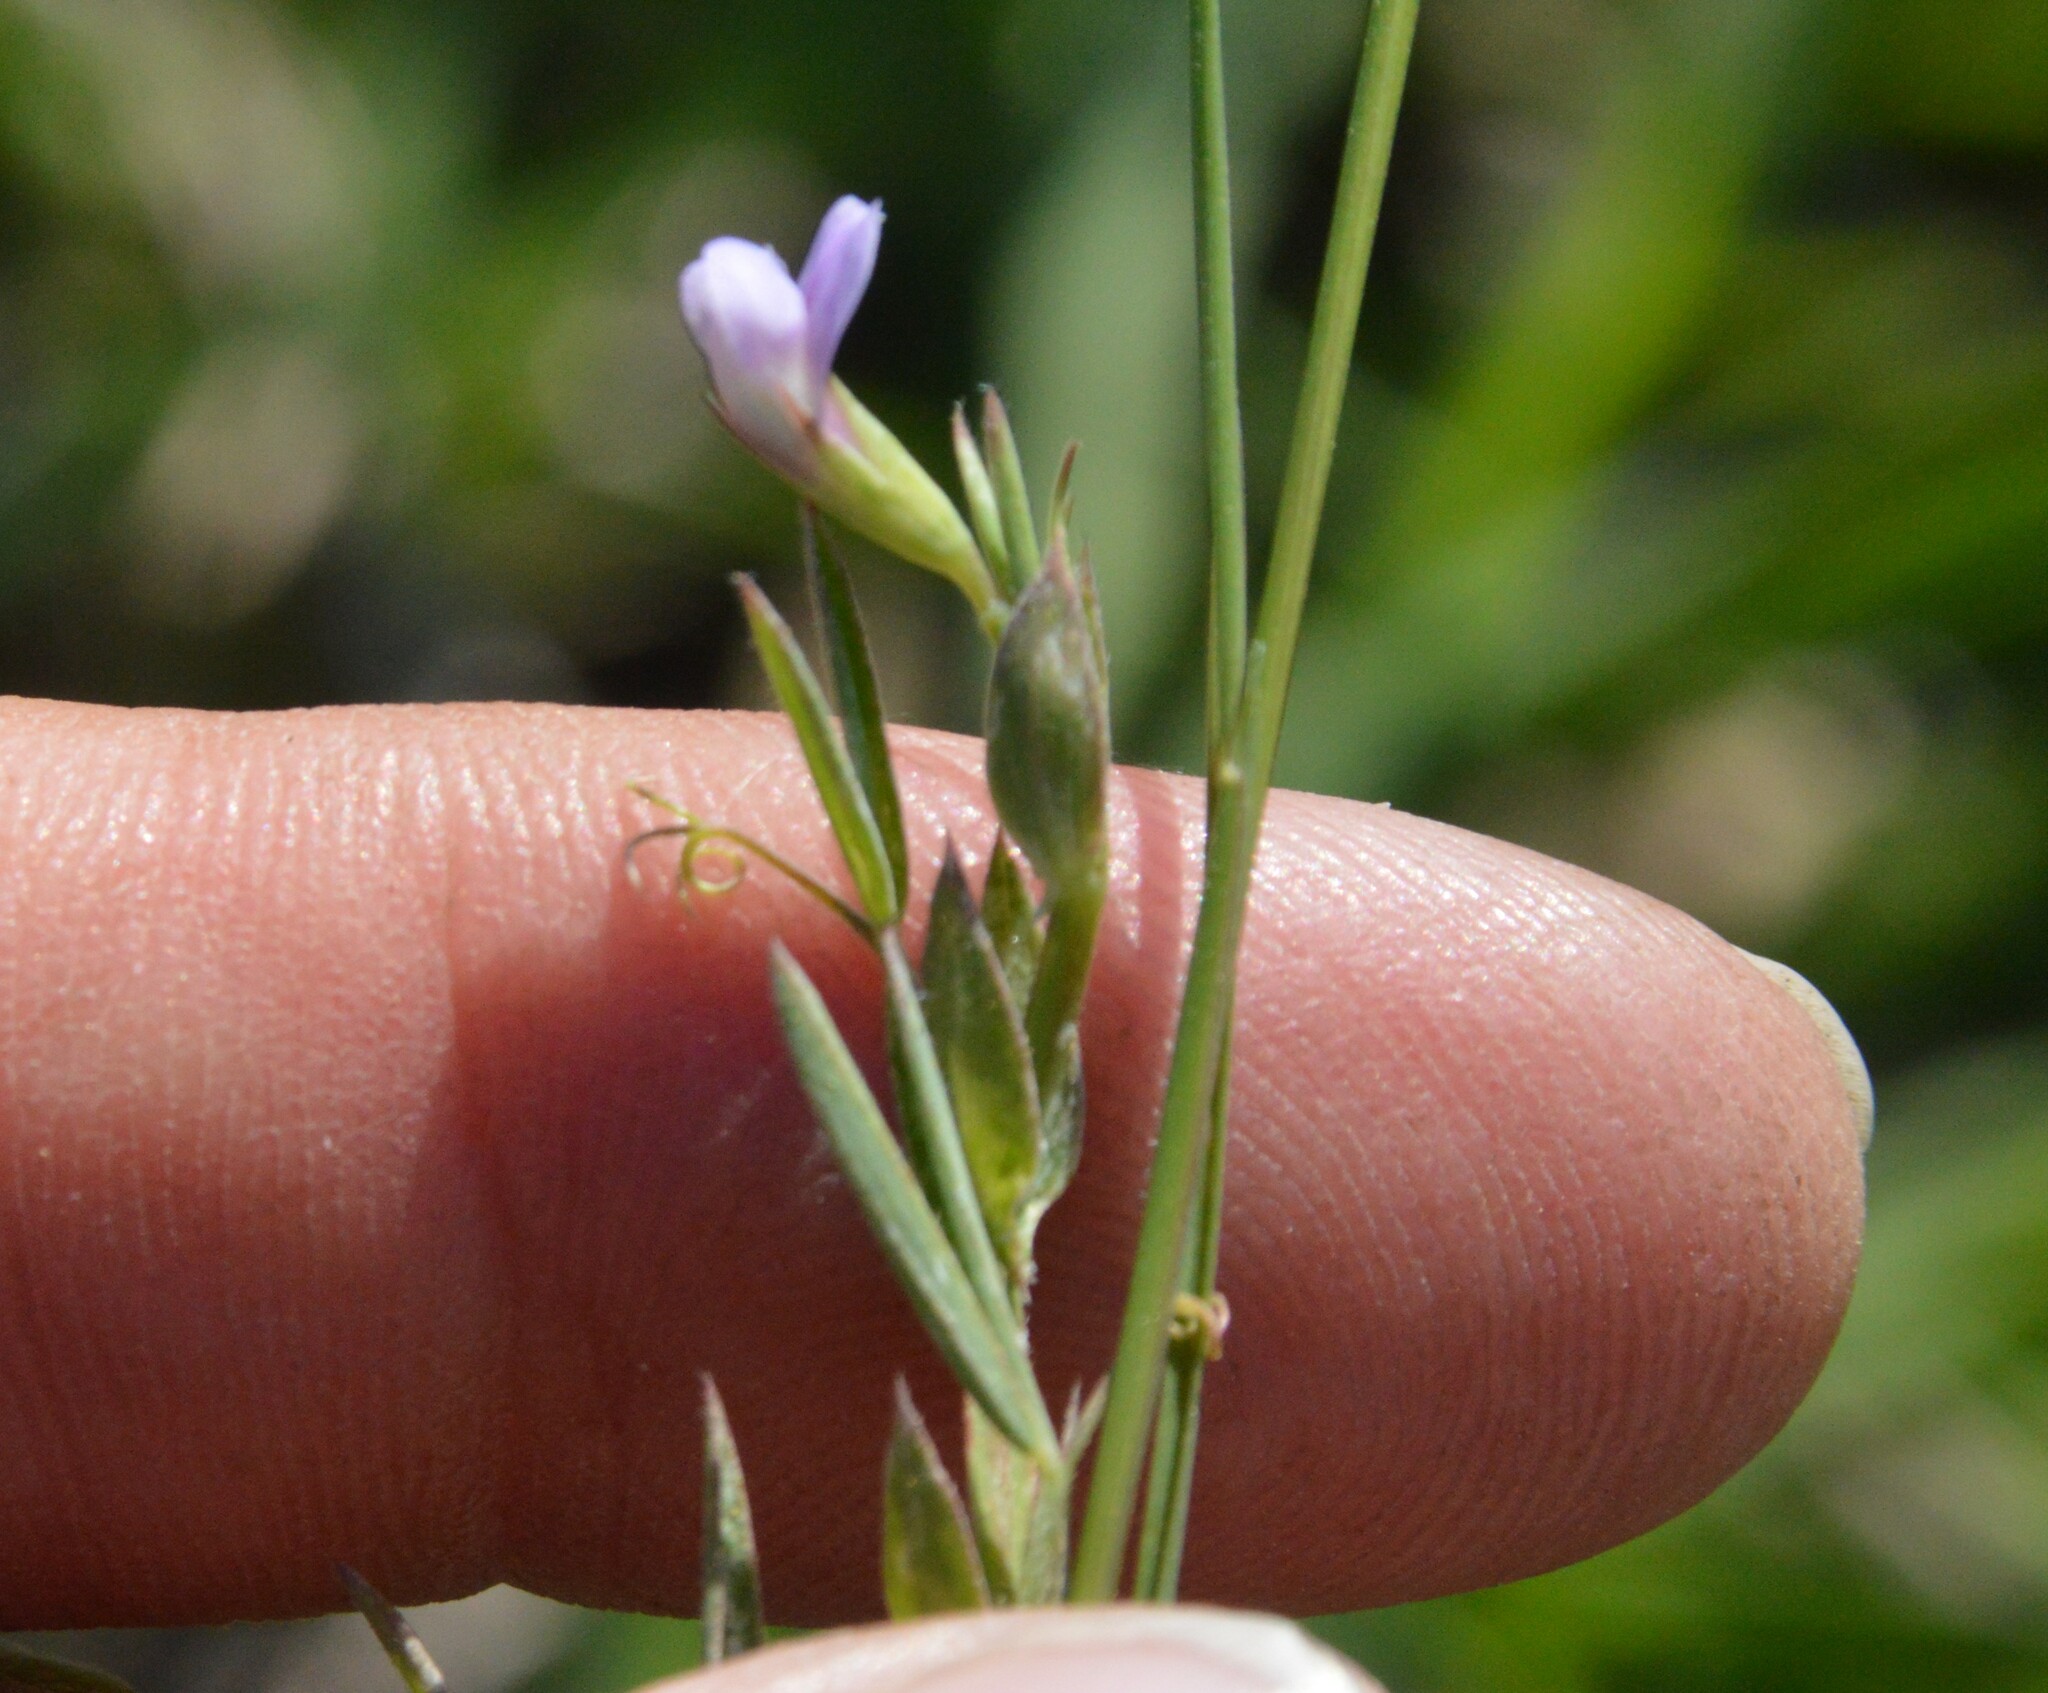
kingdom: Plantae
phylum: Tracheophyta
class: Magnoliopsida
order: Fabales
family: Fabaceae
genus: Lathyrus
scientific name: Lathyrus pusillus
